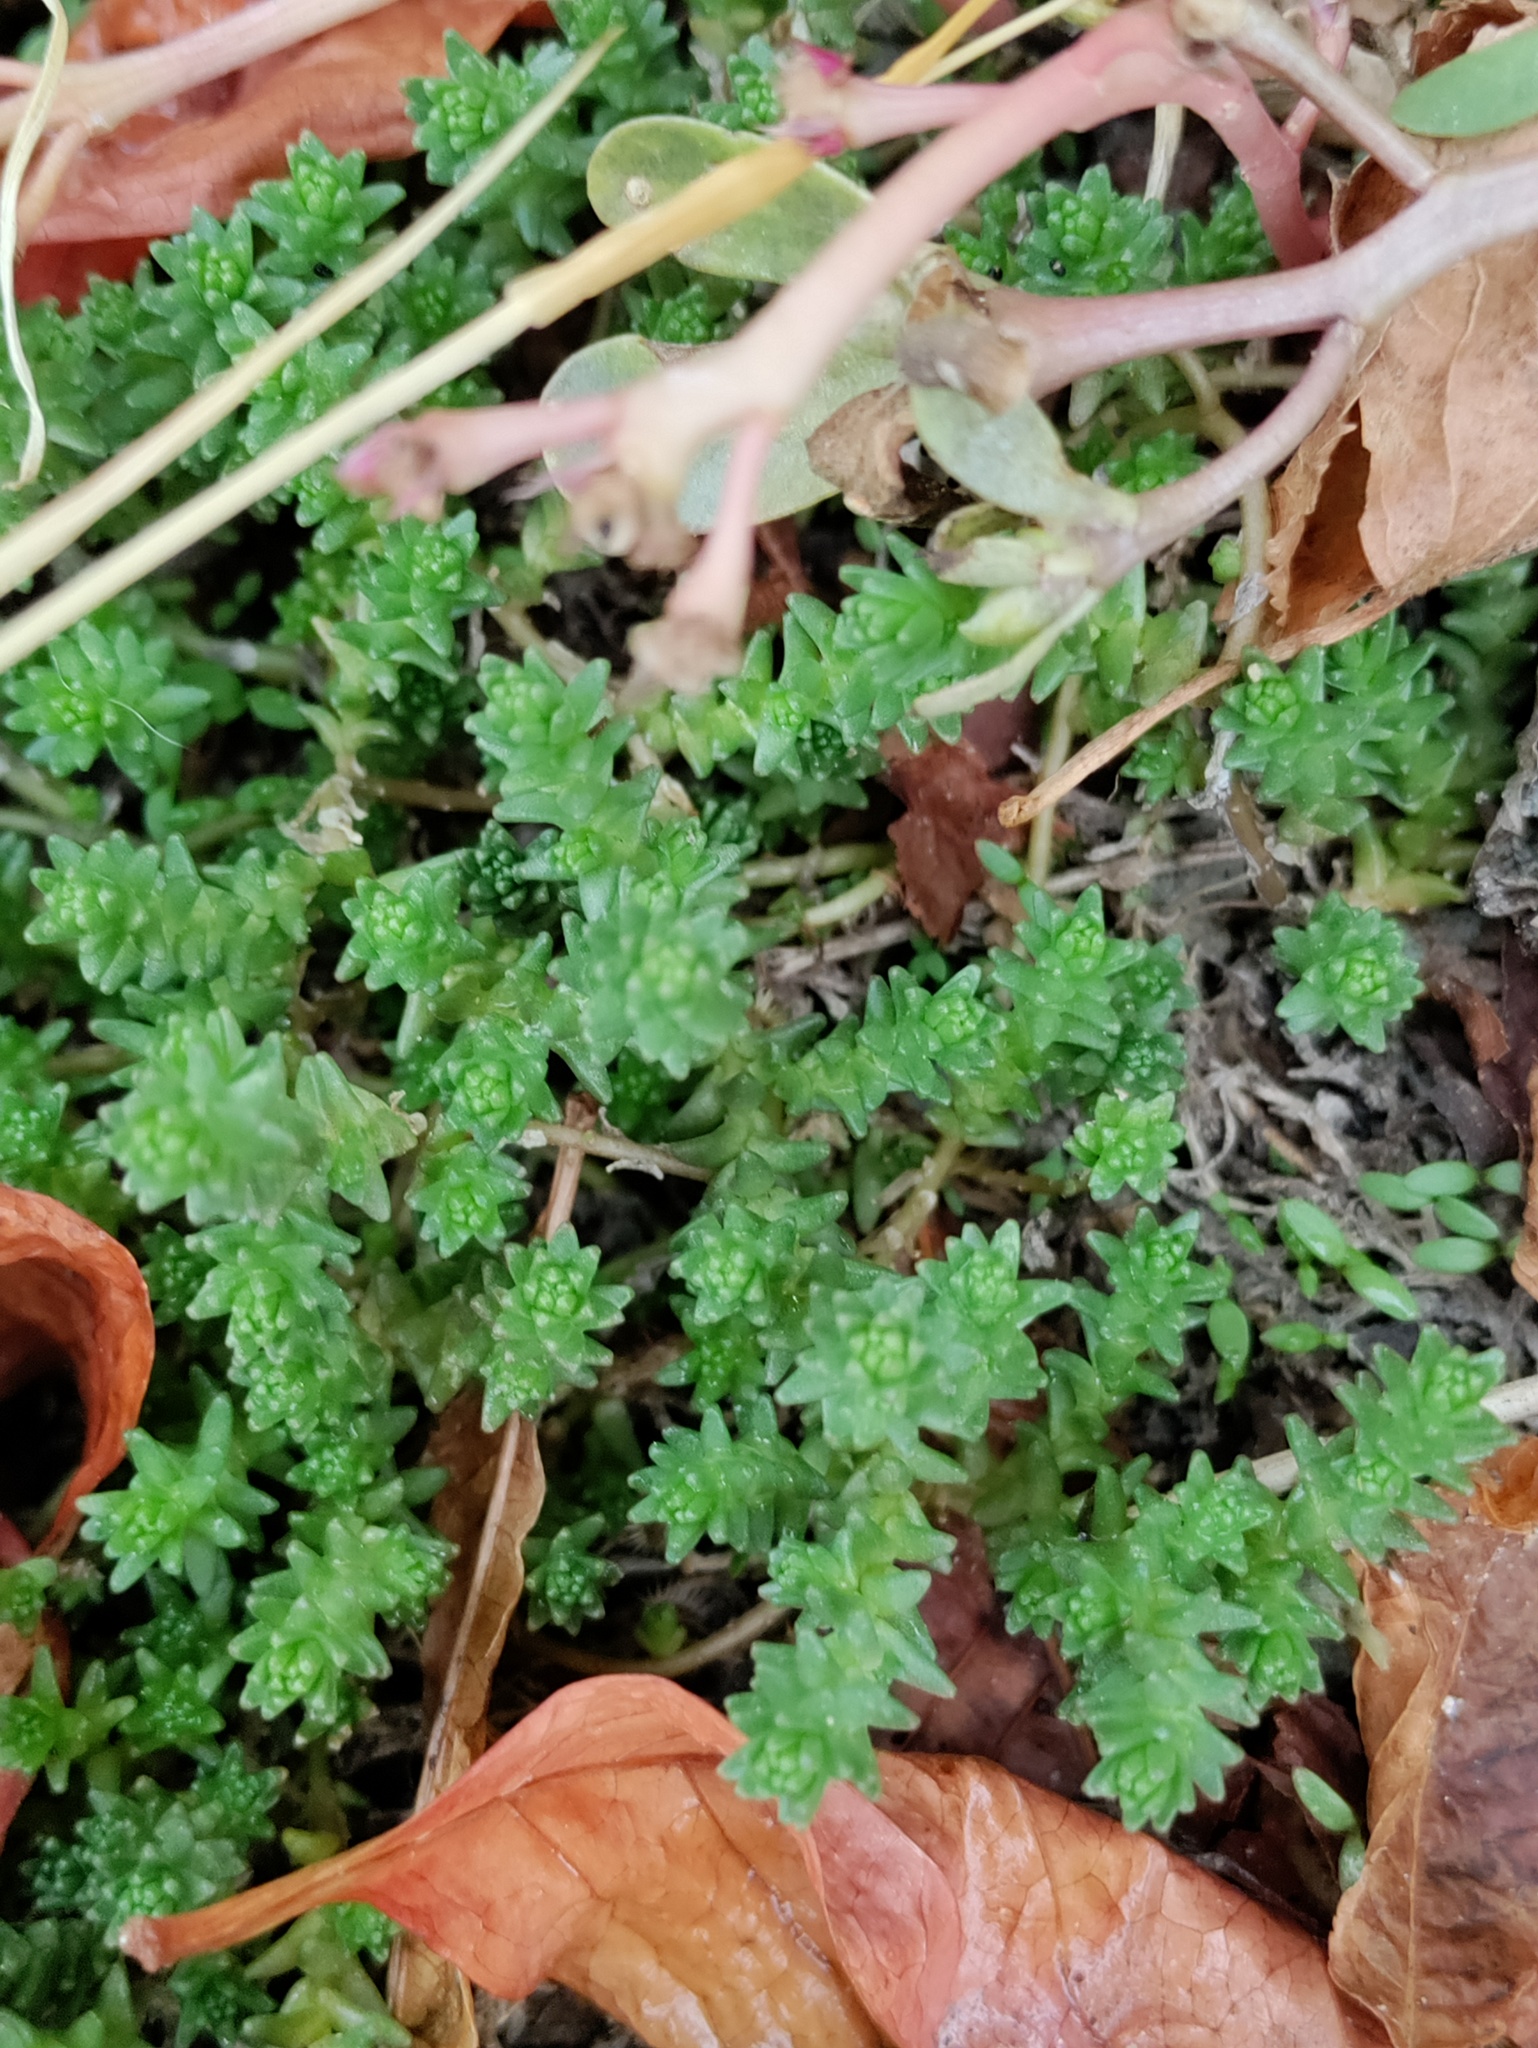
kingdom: Plantae
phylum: Tracheophyta
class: Magnoliopsida
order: Saxifragales
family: Crassulaceae
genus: Sedum
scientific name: Sedum acre
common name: Biting stonecrop
